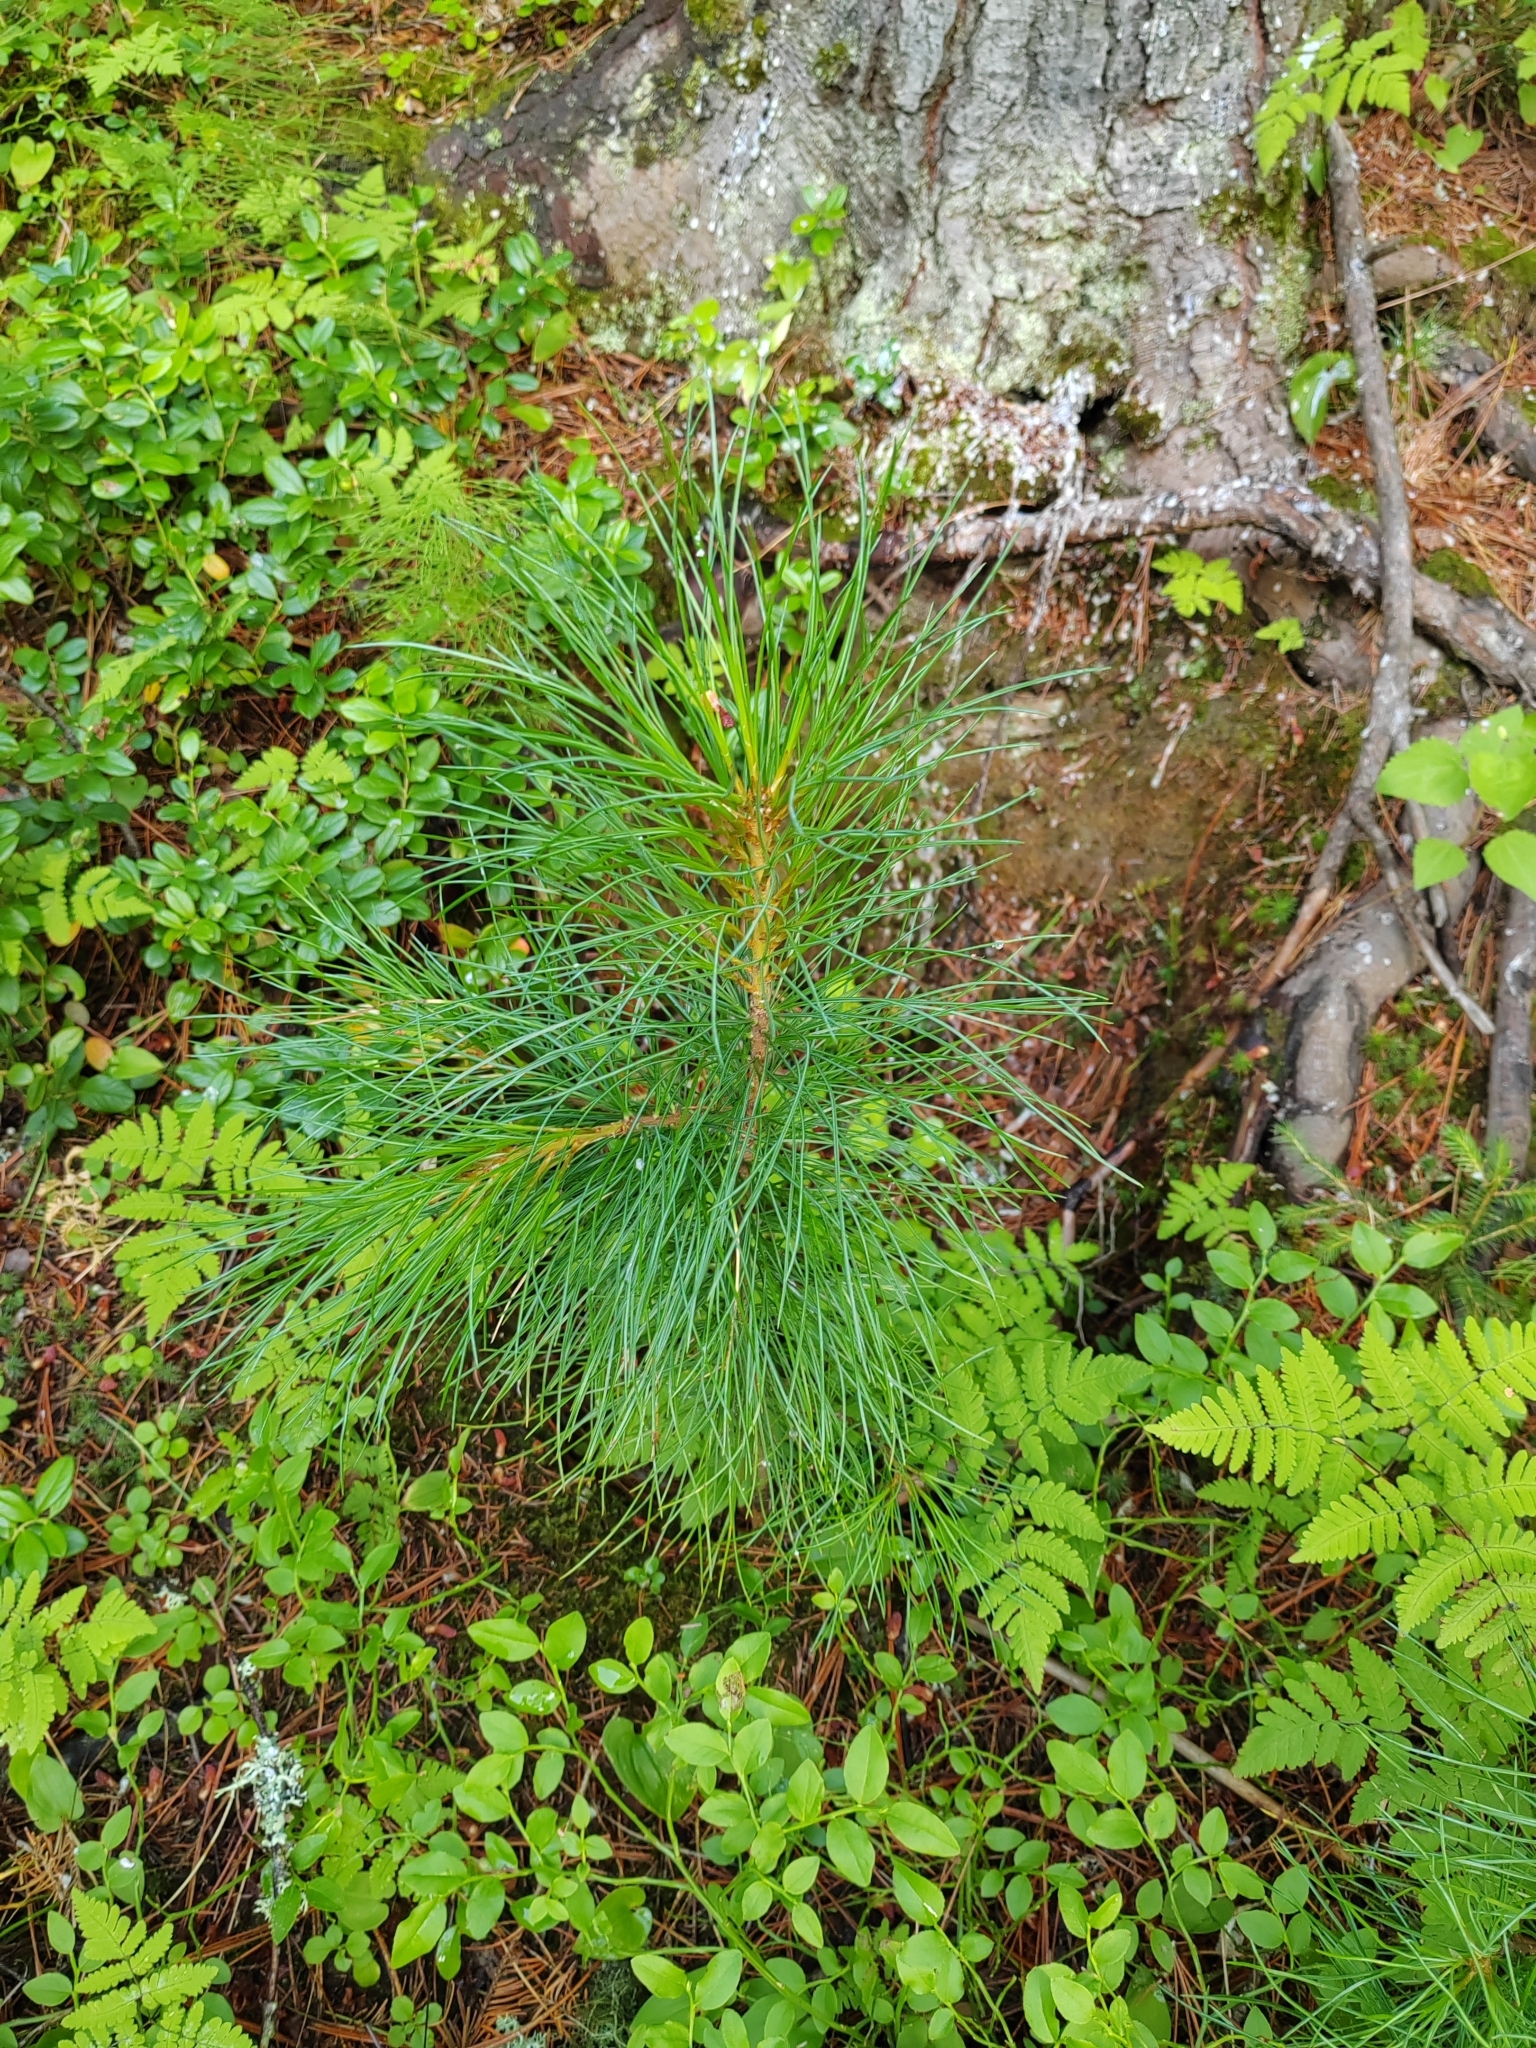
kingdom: Plantae
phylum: Tracheophyta
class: Pinopsida
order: Pinales
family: Pinaceae
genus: Pinus
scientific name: Pinus sibirica
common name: Siberian pine
